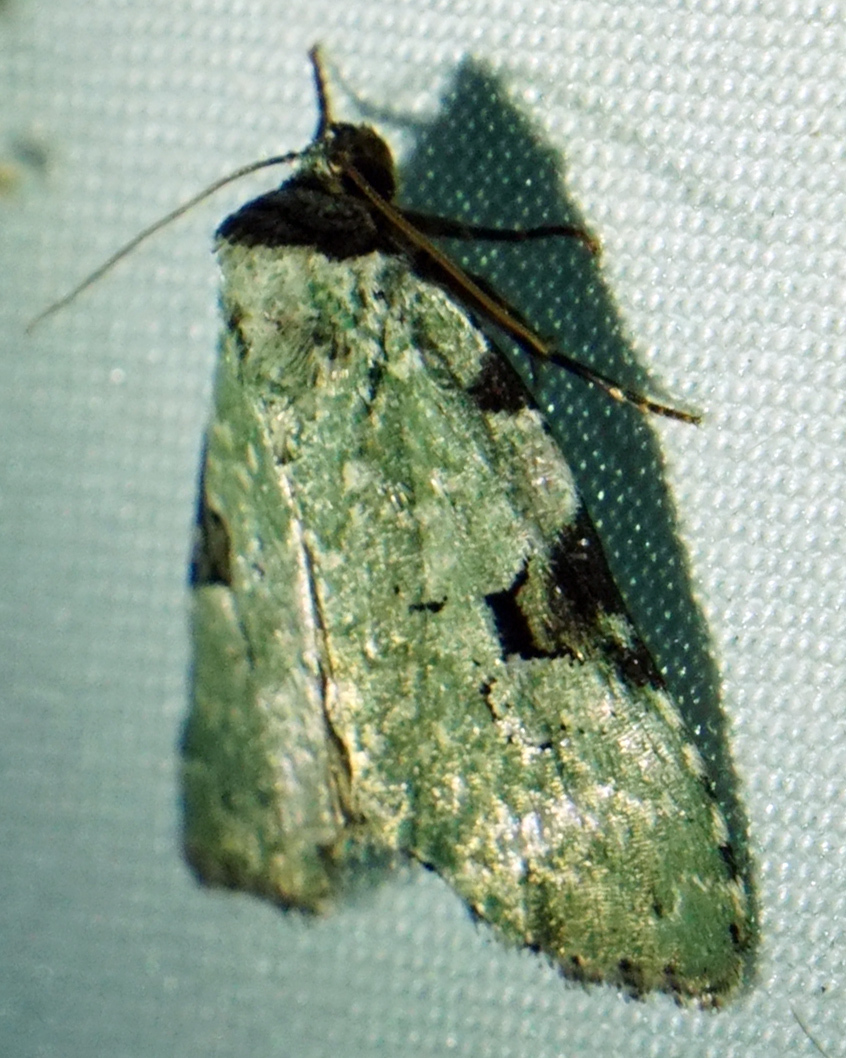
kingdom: Animalia
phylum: Arthropoda
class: Insecta
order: Lepidoptera
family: Noctuidae
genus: Leuconycta
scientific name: Leuconycta diphteroides
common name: Green leuconycta moth
